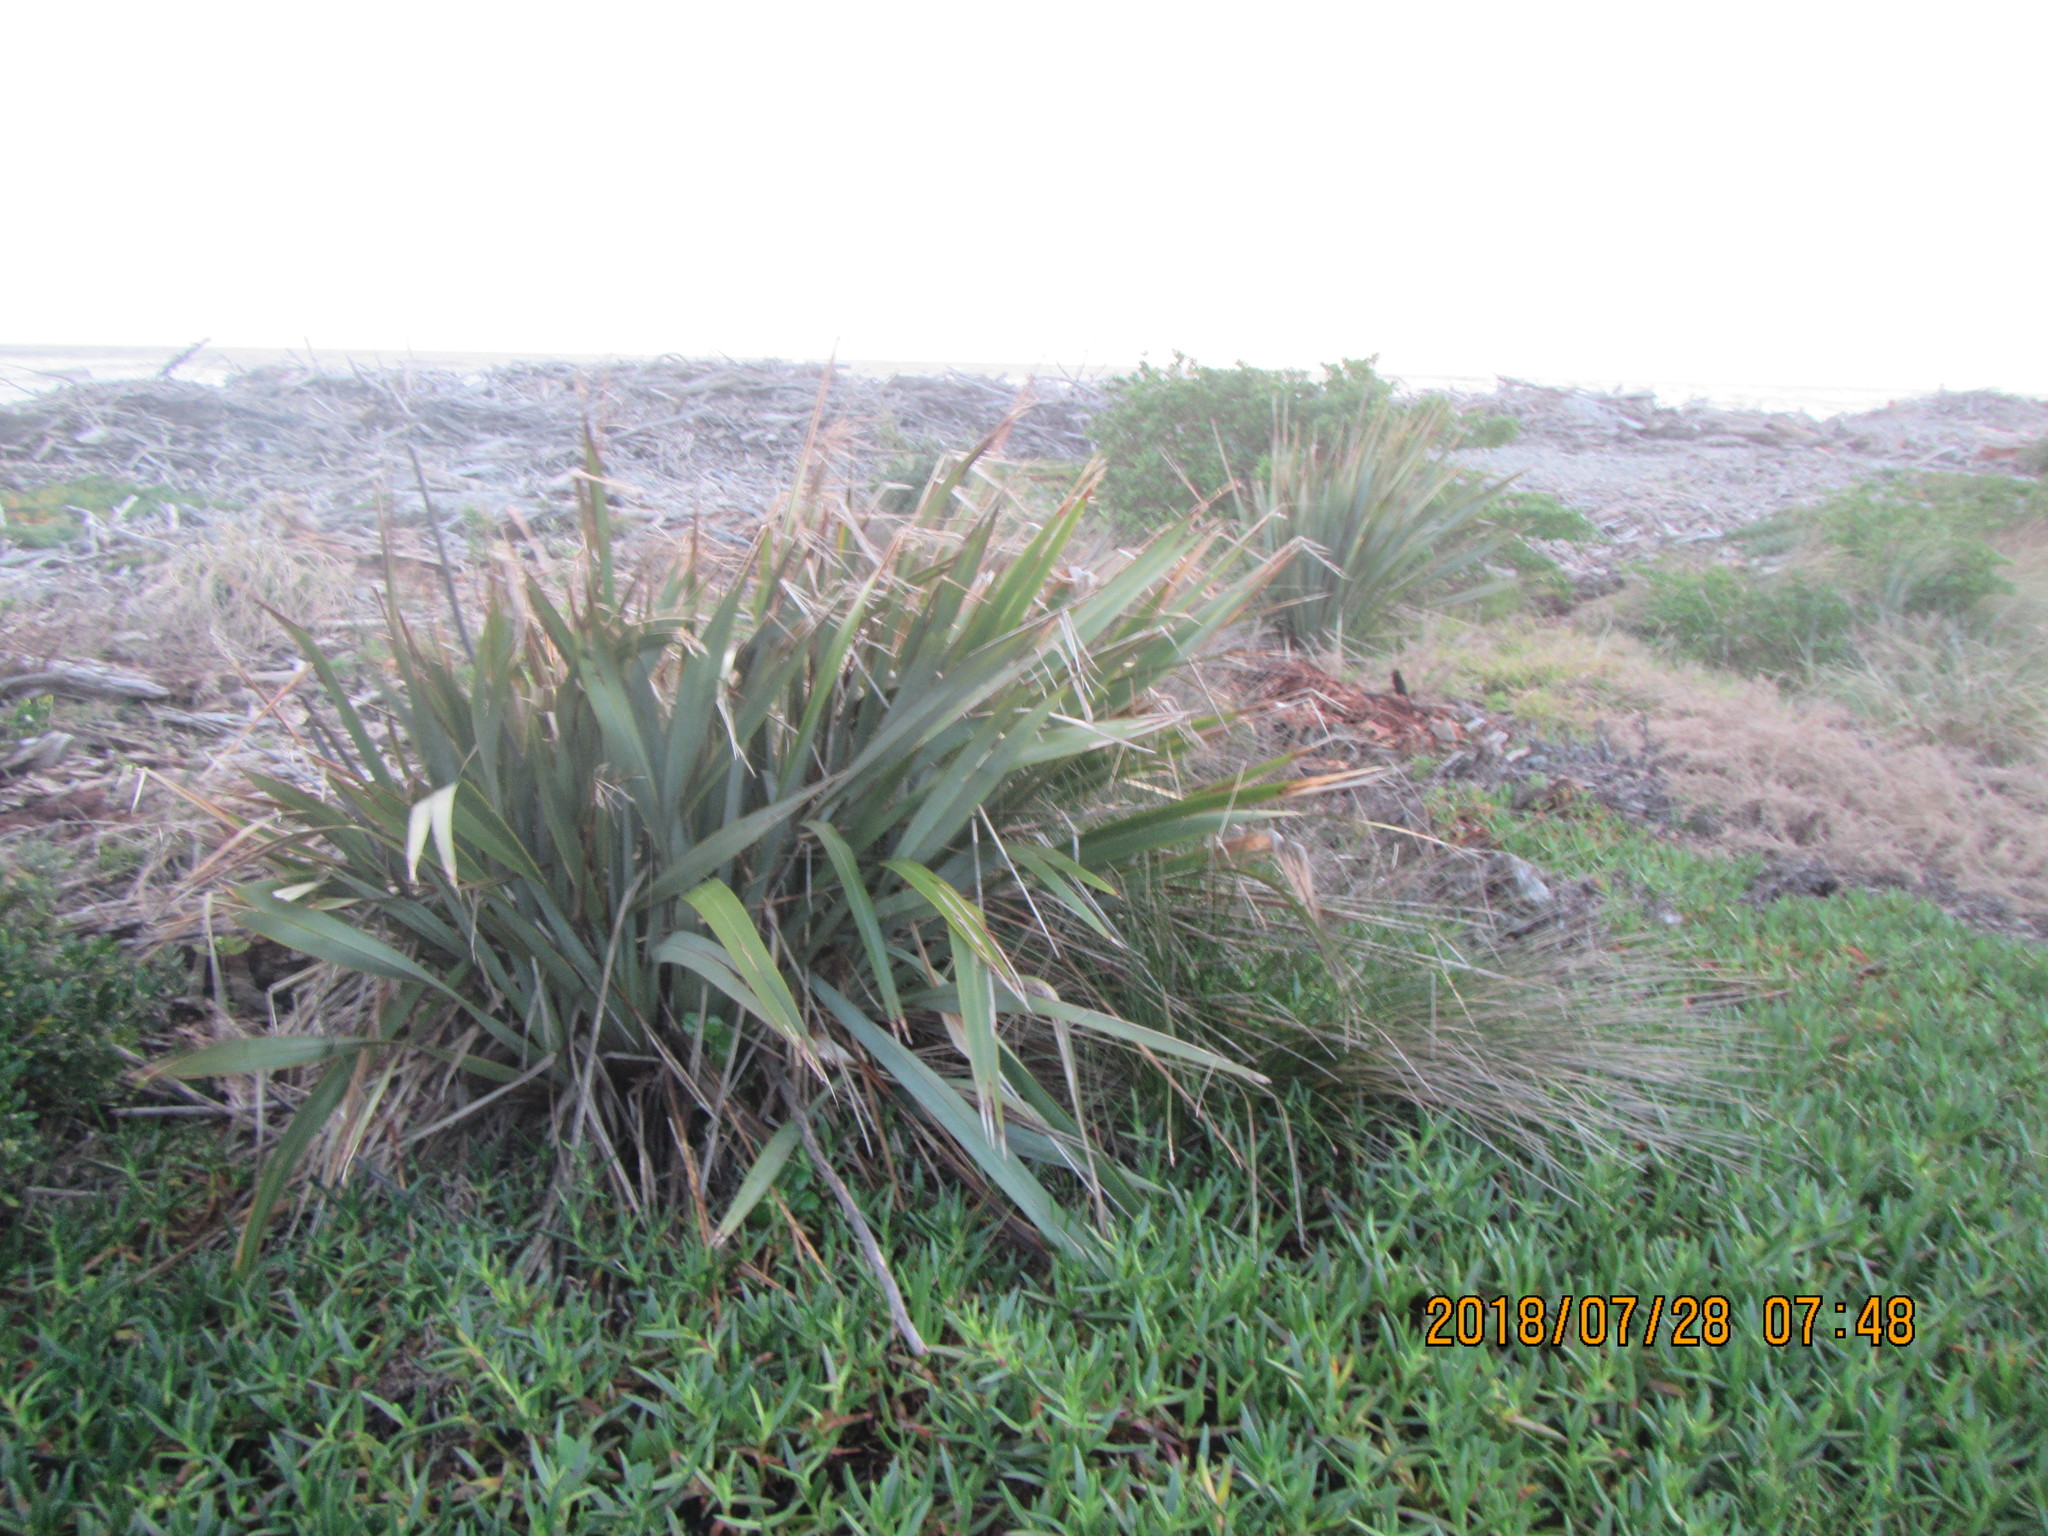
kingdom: Plantae
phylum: Tracheophyta
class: Liliopsida
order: Asparagales
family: Asphodelaceae
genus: Phormium
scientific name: Phormium tenax
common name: New zealand flax
